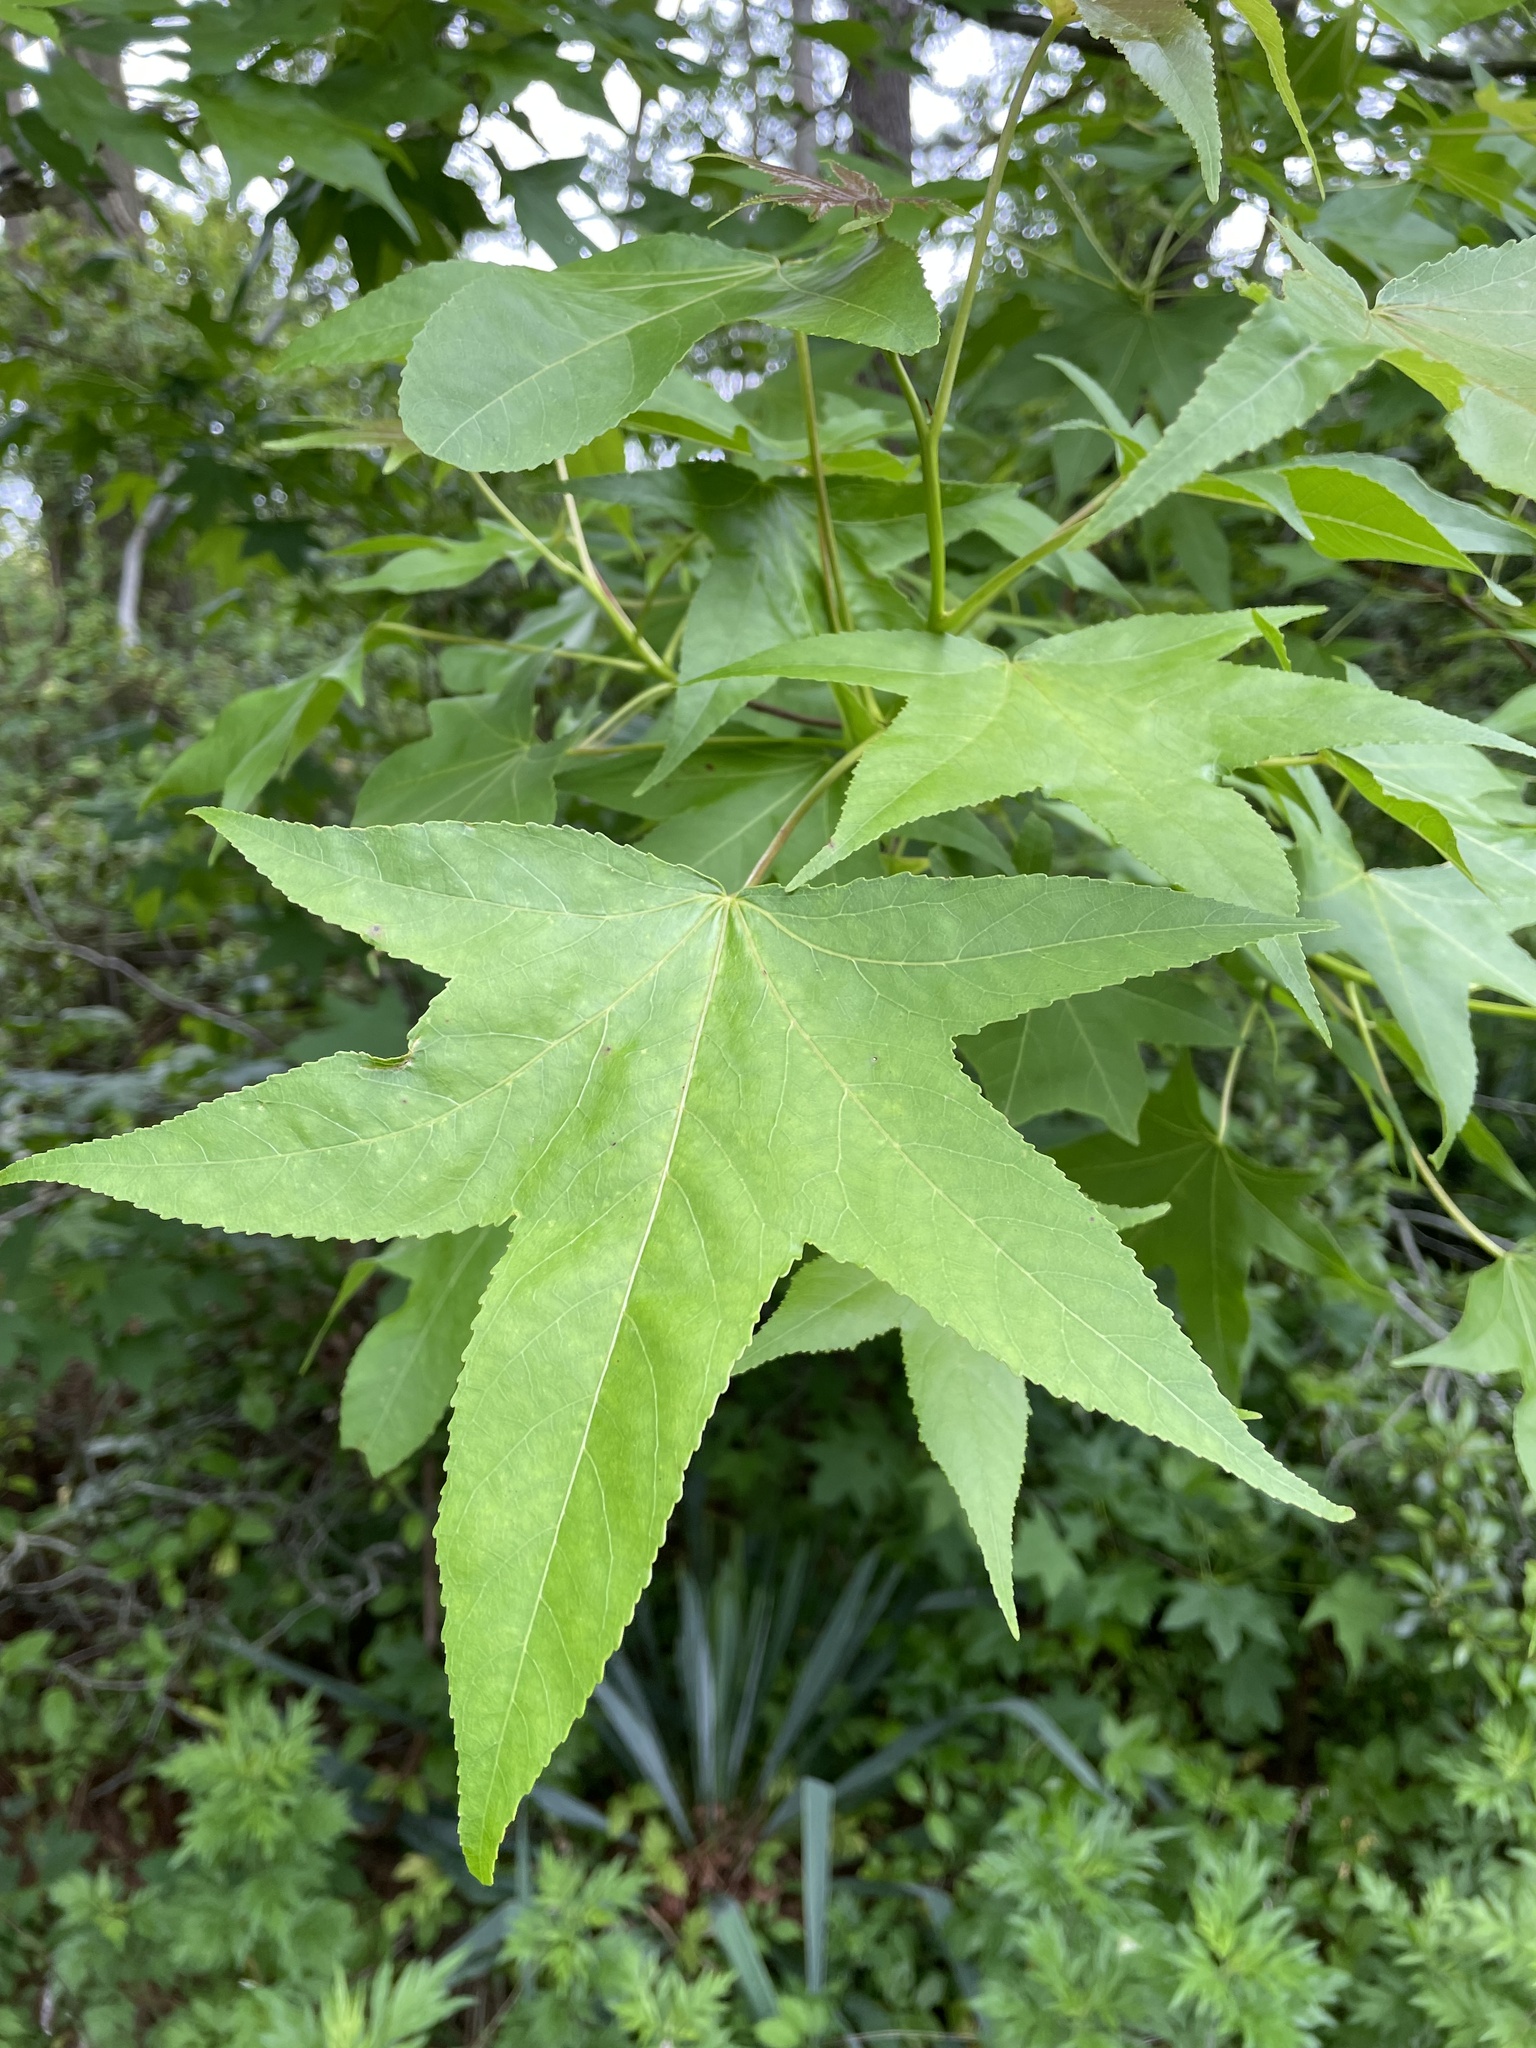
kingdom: Plantae
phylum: Tracheophyta
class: Magnoliopsida
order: Saxifragales
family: Altingiaceae
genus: Liquidambar
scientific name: Liquidambar styraciflua
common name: Sweet gum
